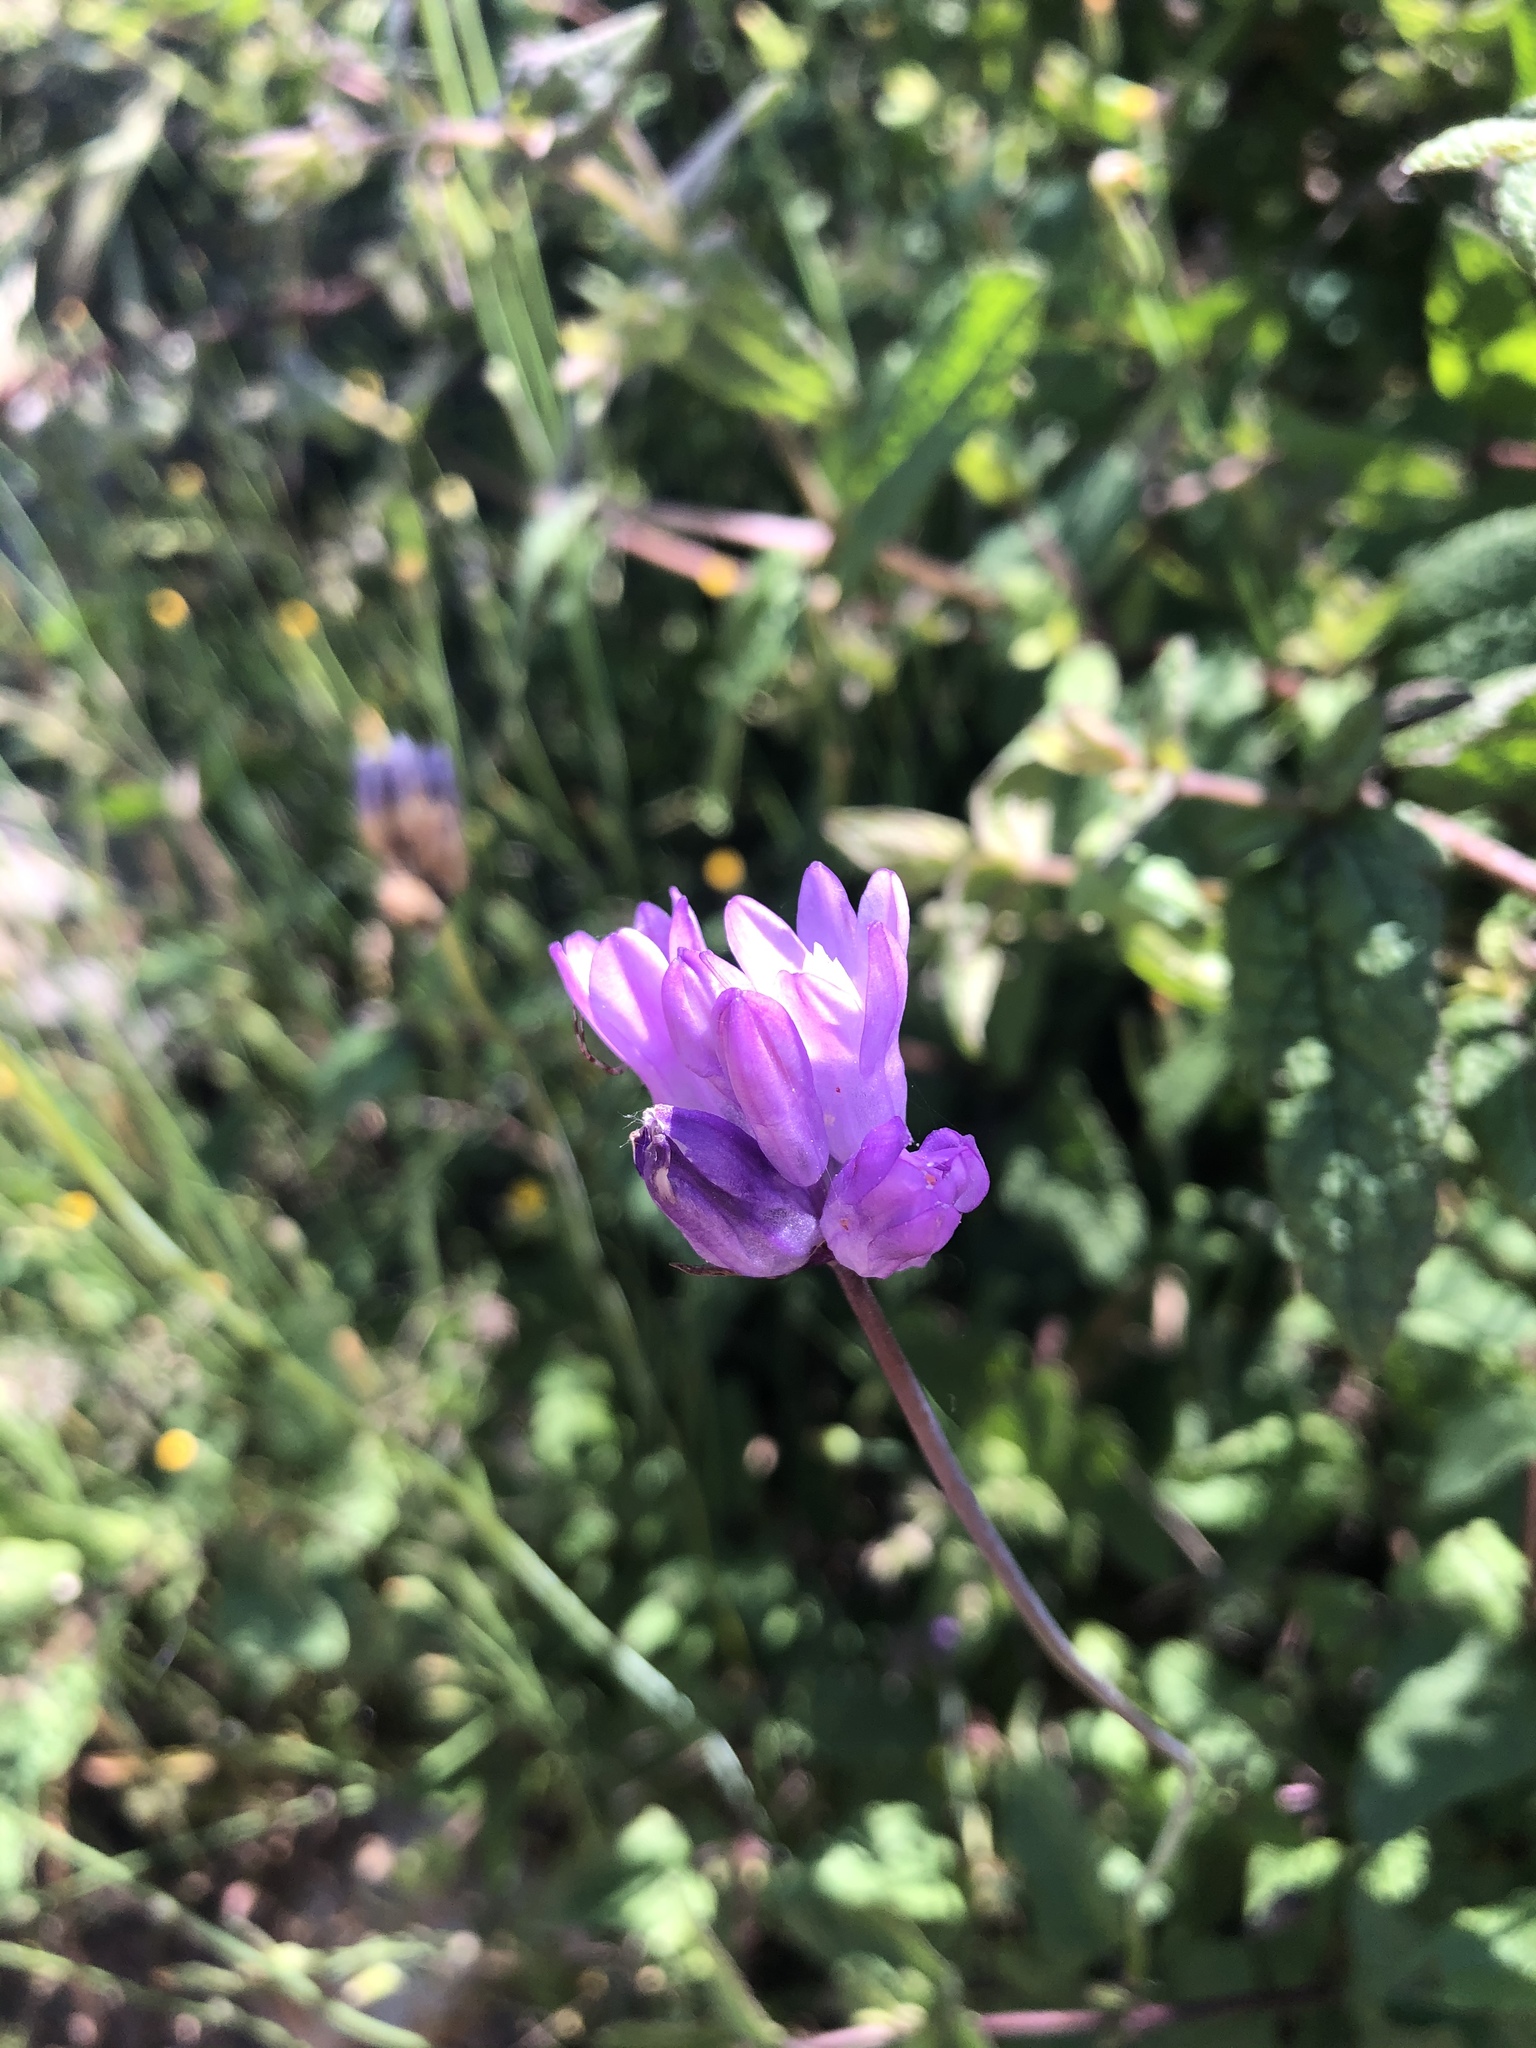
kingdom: Plantae
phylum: Tracheophyta
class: Liliopsida
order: Asparagales
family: Asparagaceae
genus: Dipterostemon
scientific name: Dipterostemon capitatus
